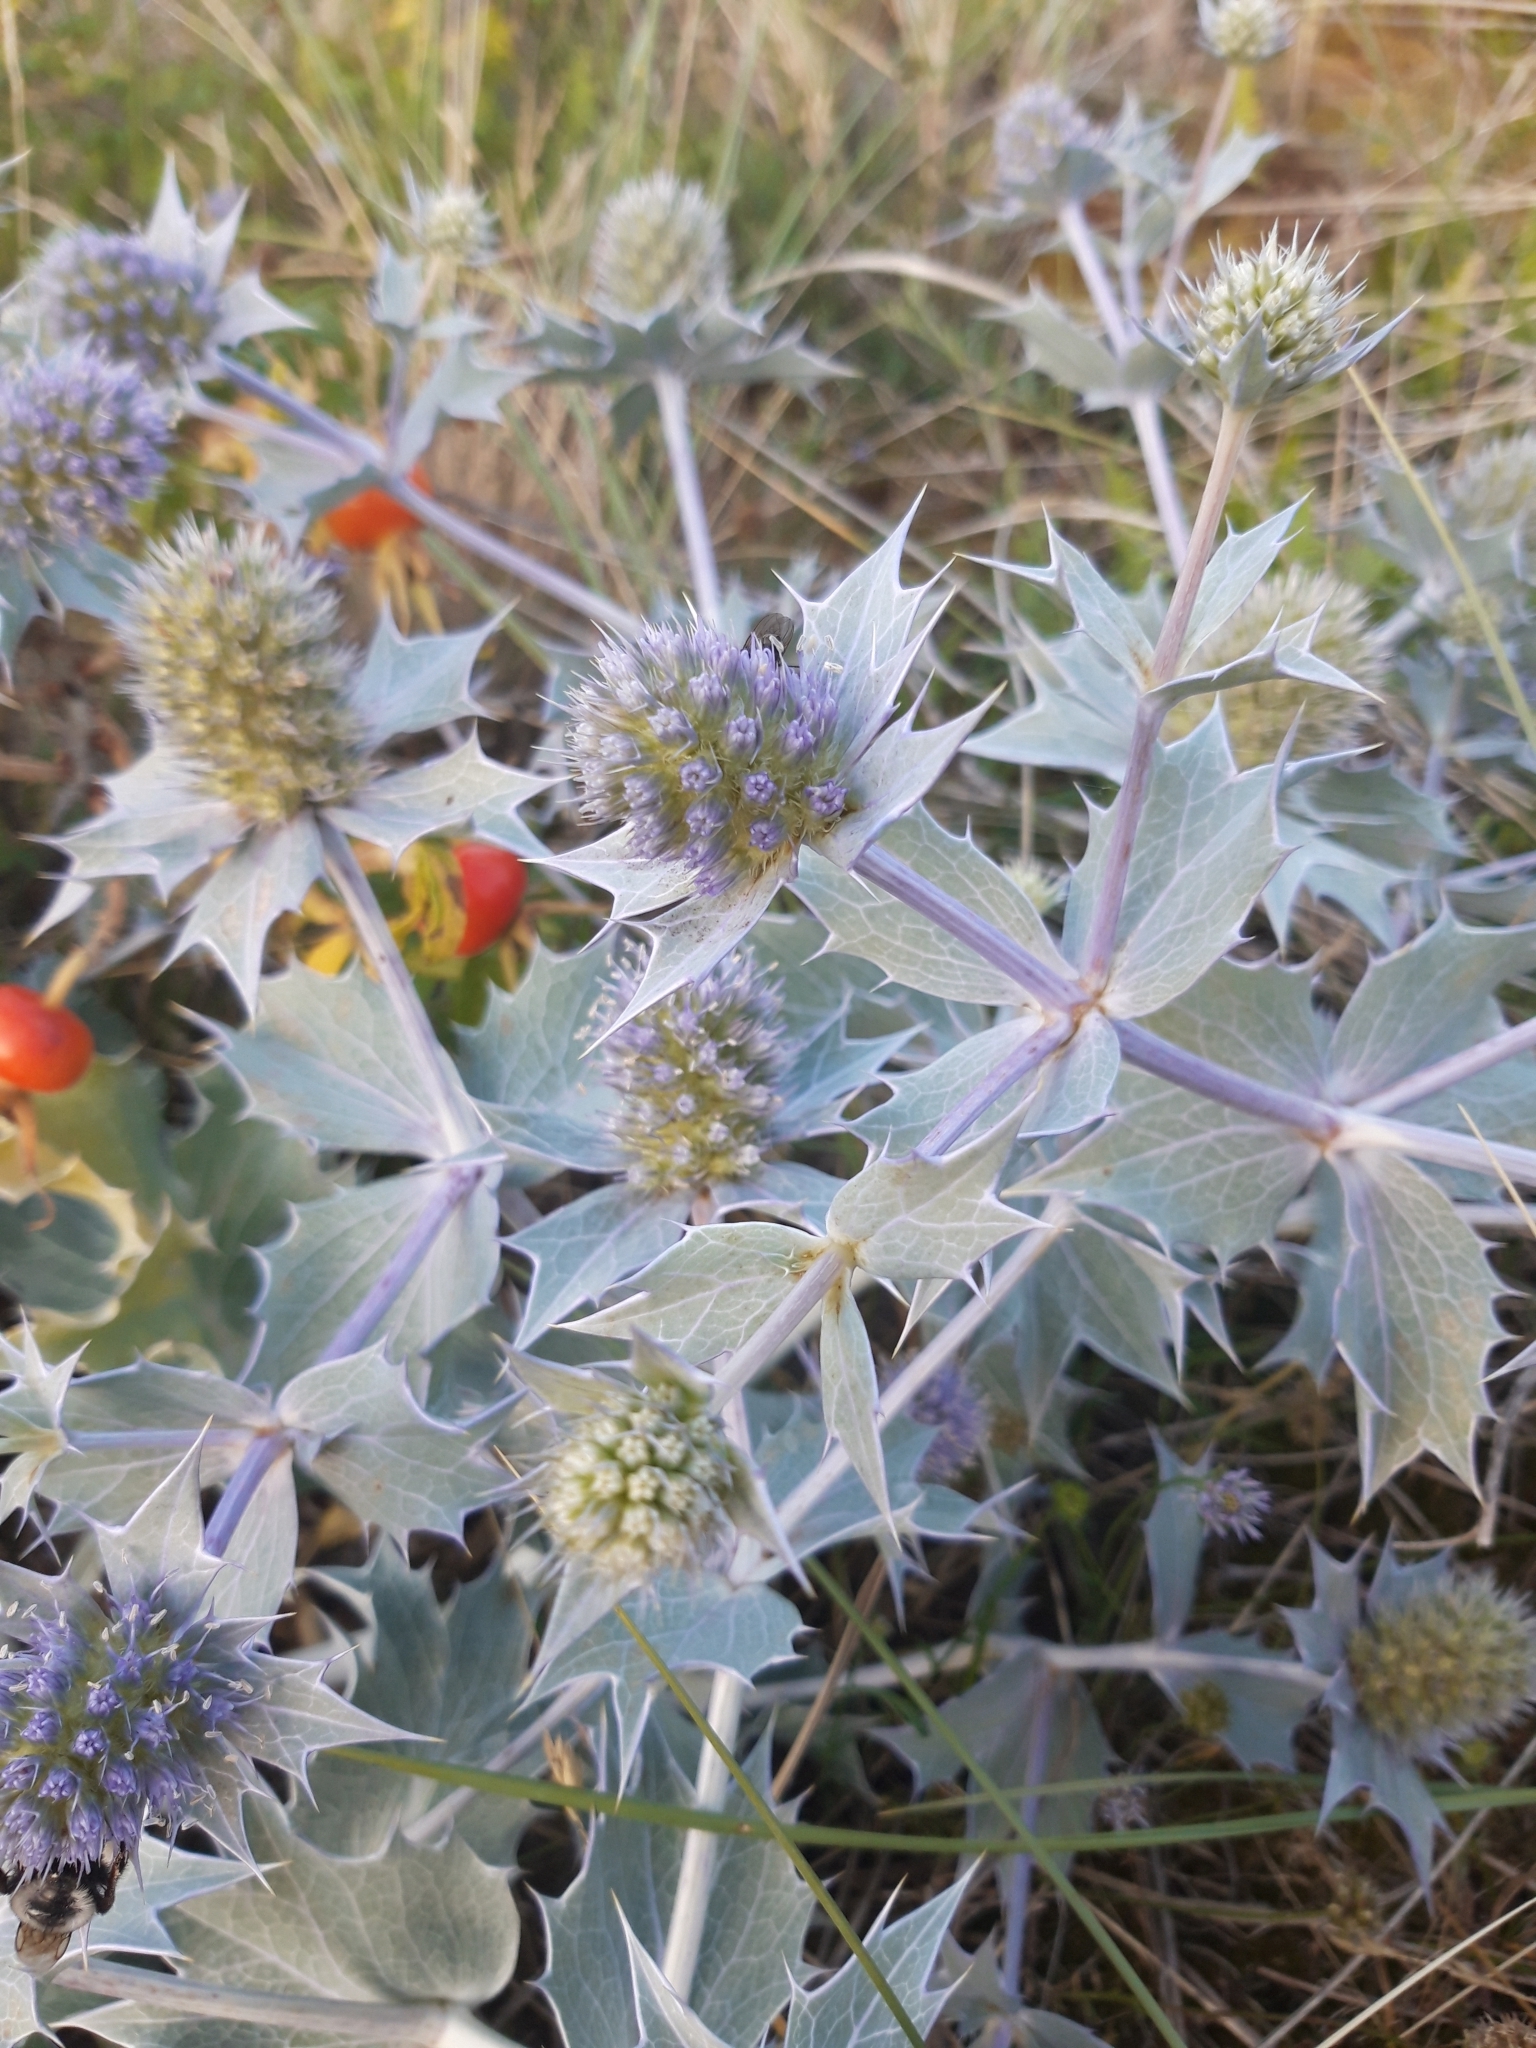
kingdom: Plantae
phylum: Tracheophyta
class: Magnoliopsida
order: Apiales
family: Apiaceae
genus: Eryngium
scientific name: Eryngium maritimum
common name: Sea-holly
